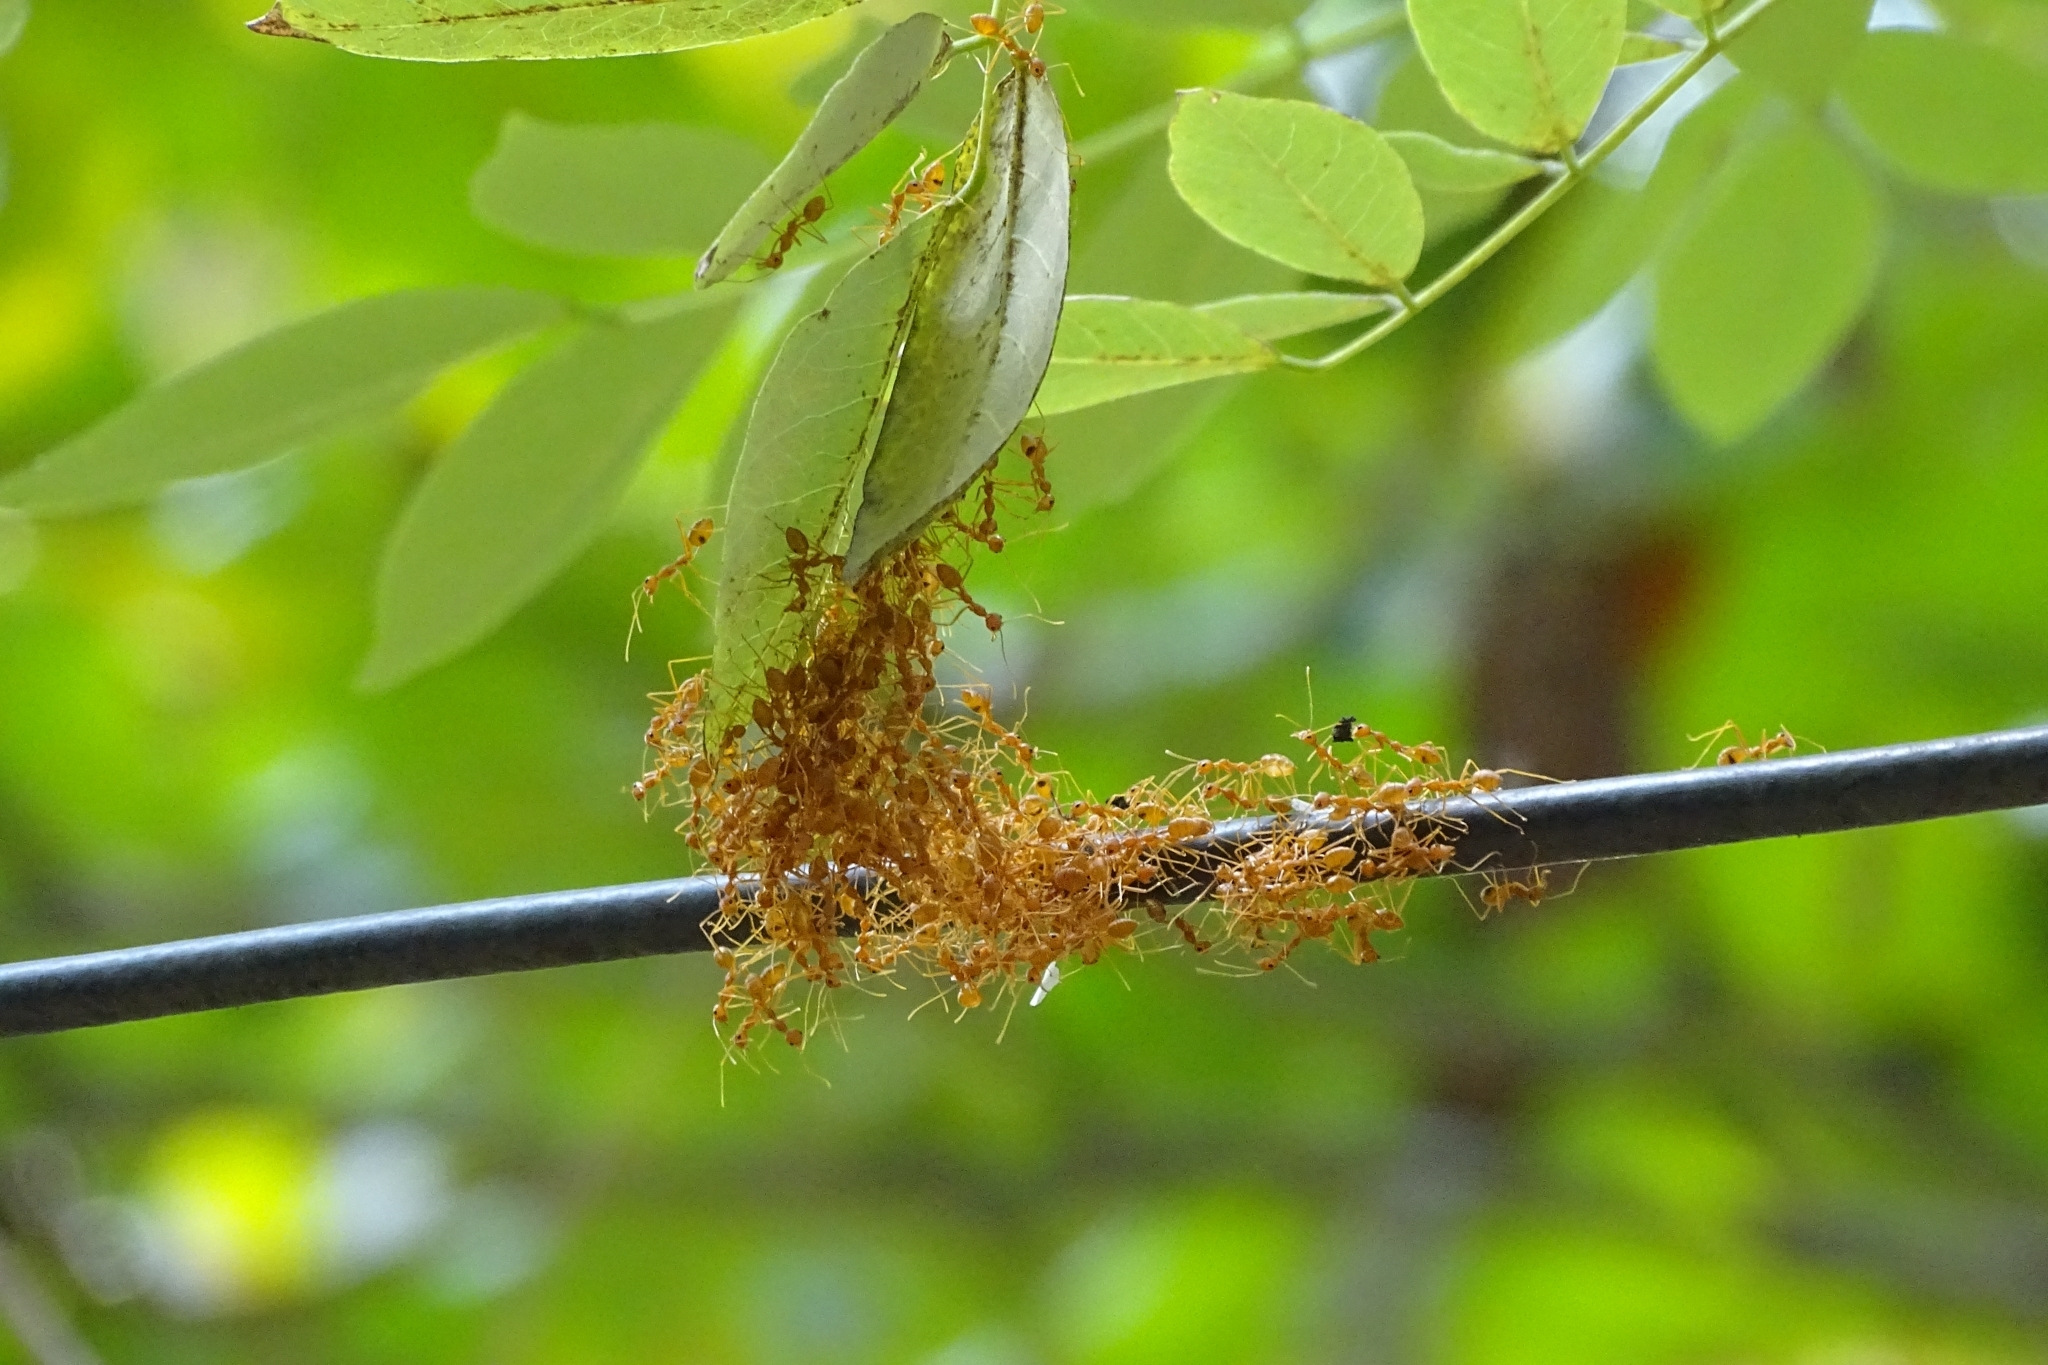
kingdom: Animalia
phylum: Arthropoda
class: Insecta
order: Hymenoptera
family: Formicidae
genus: Oecophylla
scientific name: Oecophylla smaragdina
